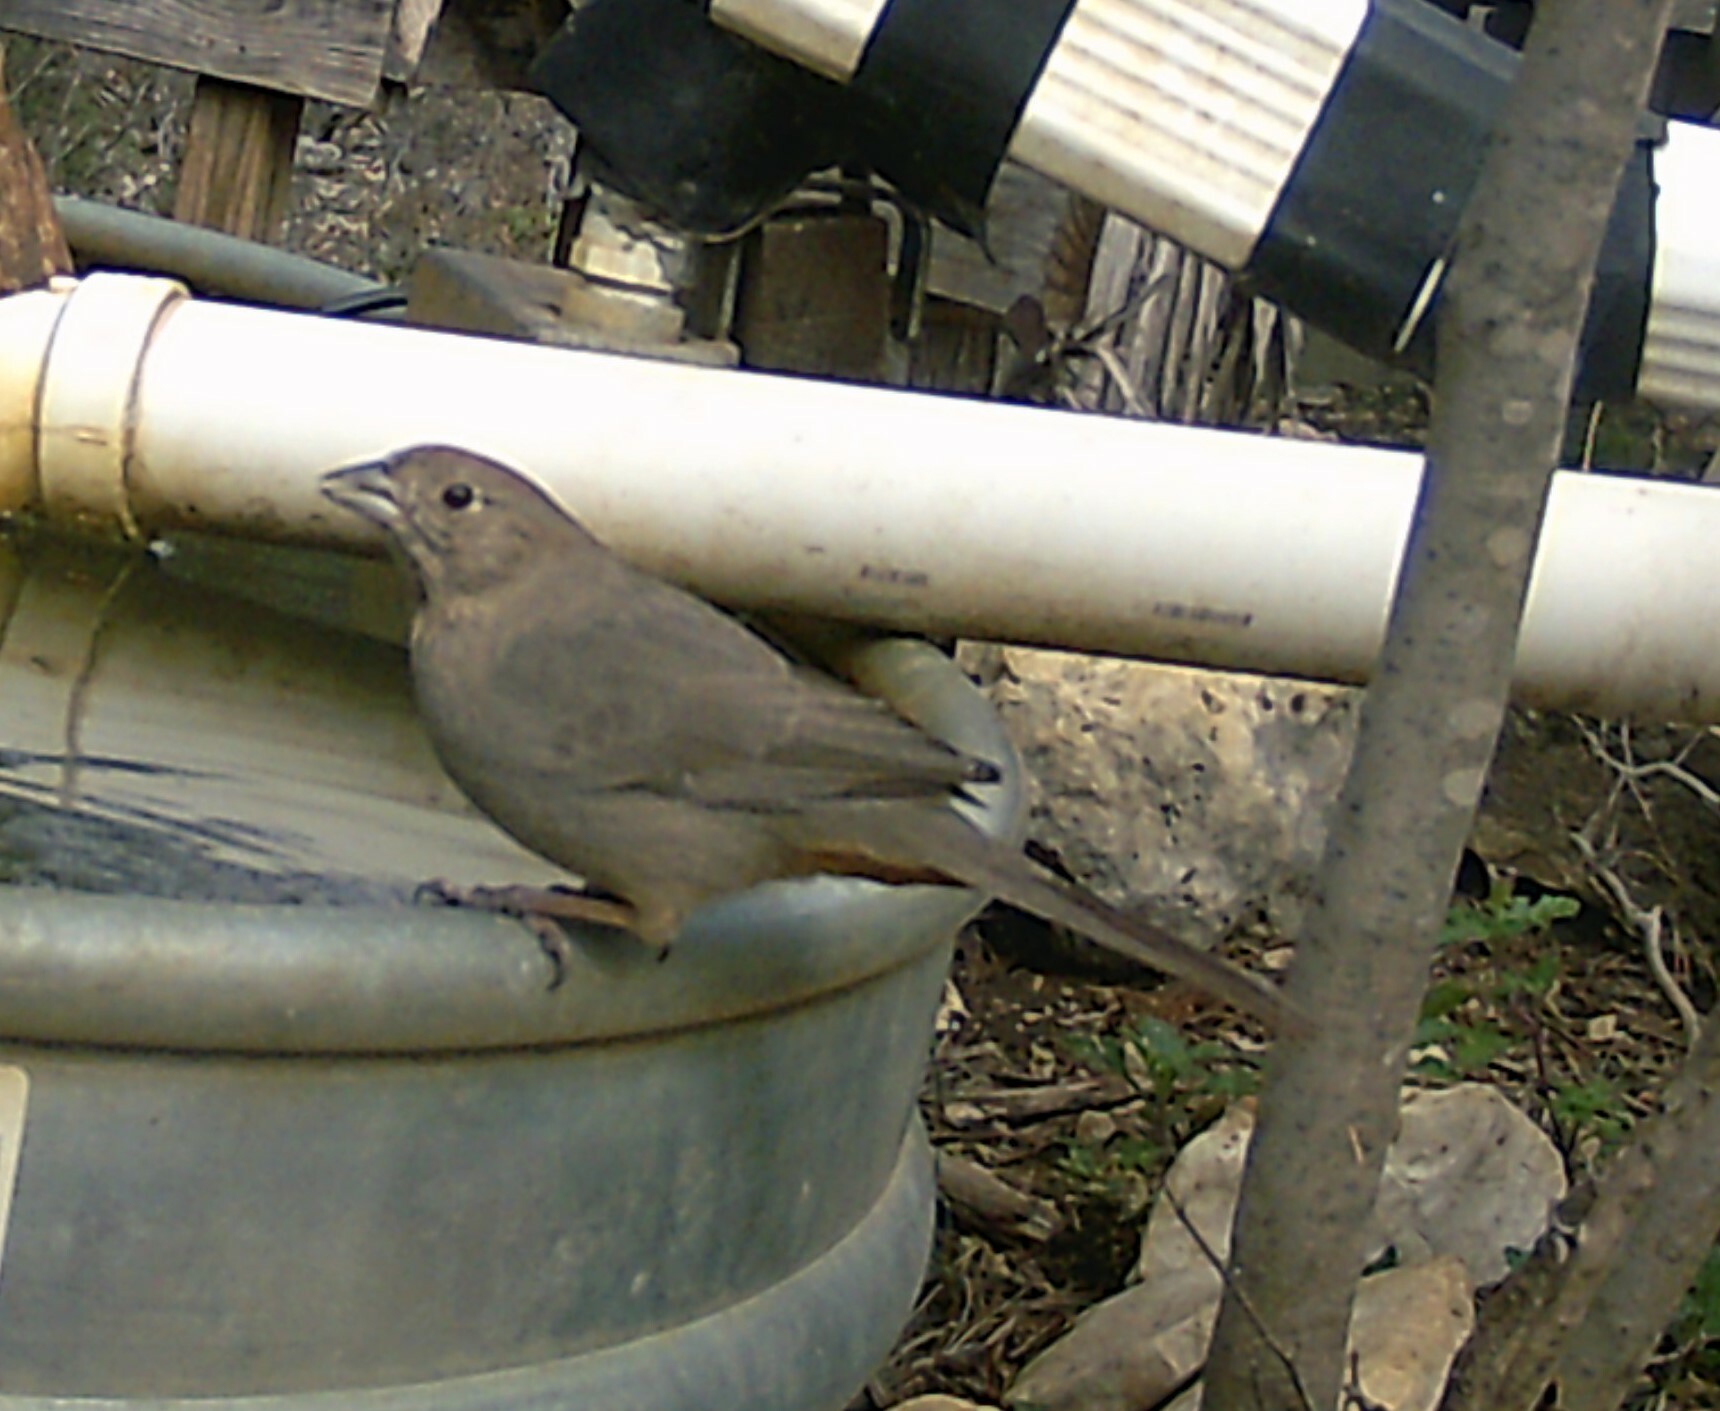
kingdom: Animalia
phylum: Chordata
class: Aves
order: Passeriformes
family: Passerellidae
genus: Melozone
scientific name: Melozone fusca
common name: Canyon towhee
